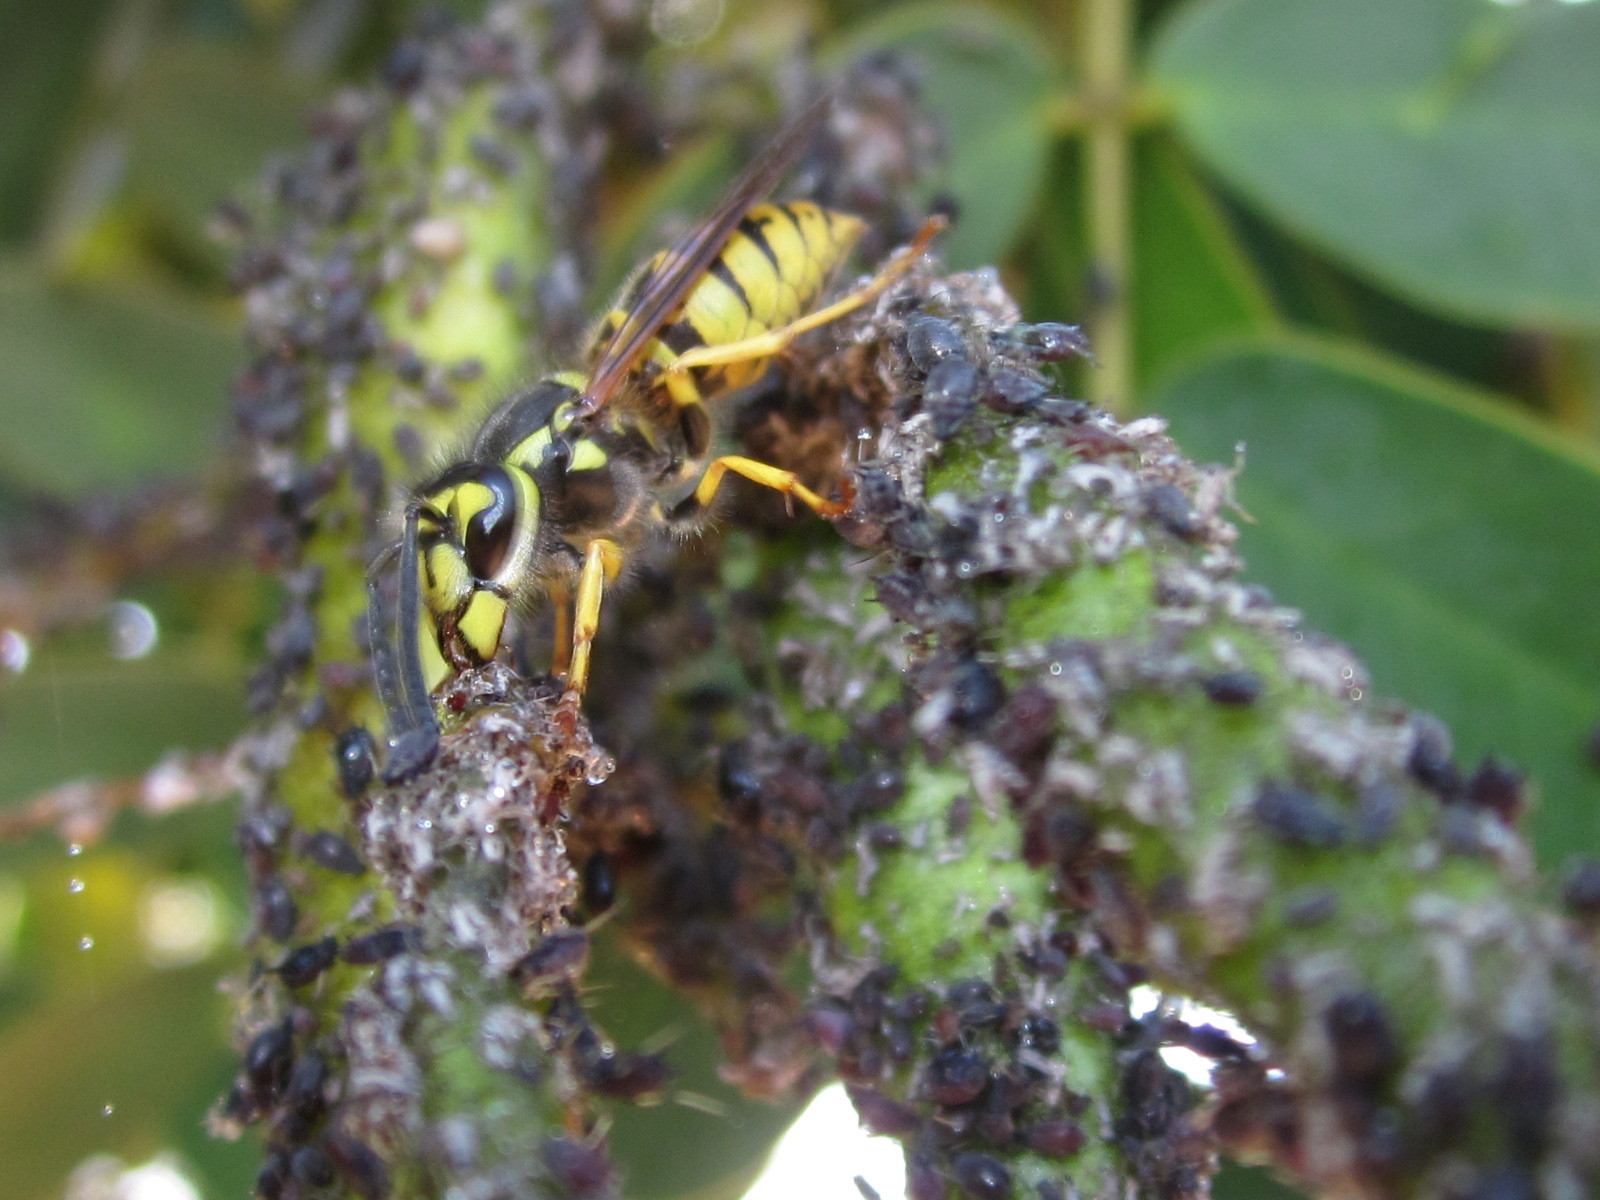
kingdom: Animalia
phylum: Arthropoda
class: Insecta
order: Hymenoptera
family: Vespidae
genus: Vespula
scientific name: Vespula germanica
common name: German wasp
